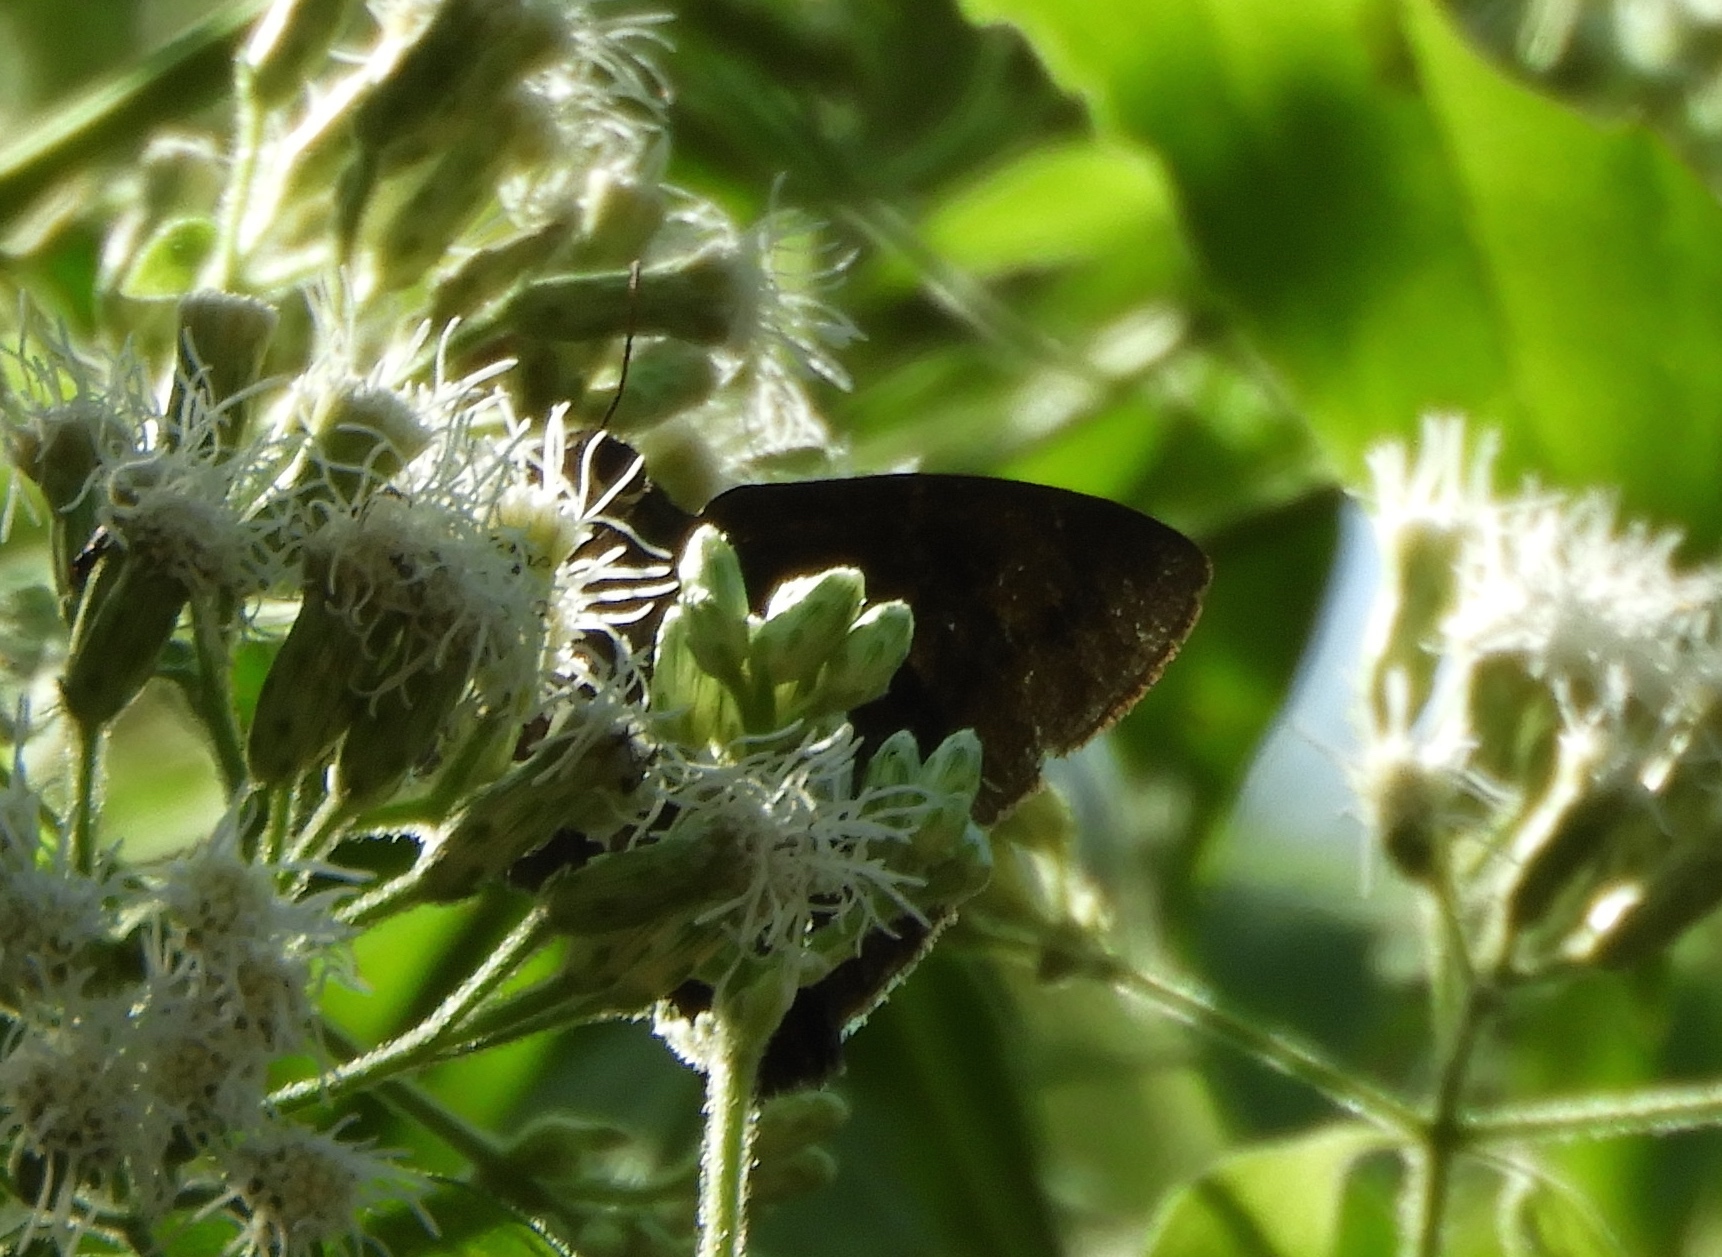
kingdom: Plantae
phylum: Tracheophyta
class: Magnoliopsida
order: Asterales
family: Asteraceae
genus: Chromolaena
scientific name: Chromolaena odorata
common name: Siamweed
